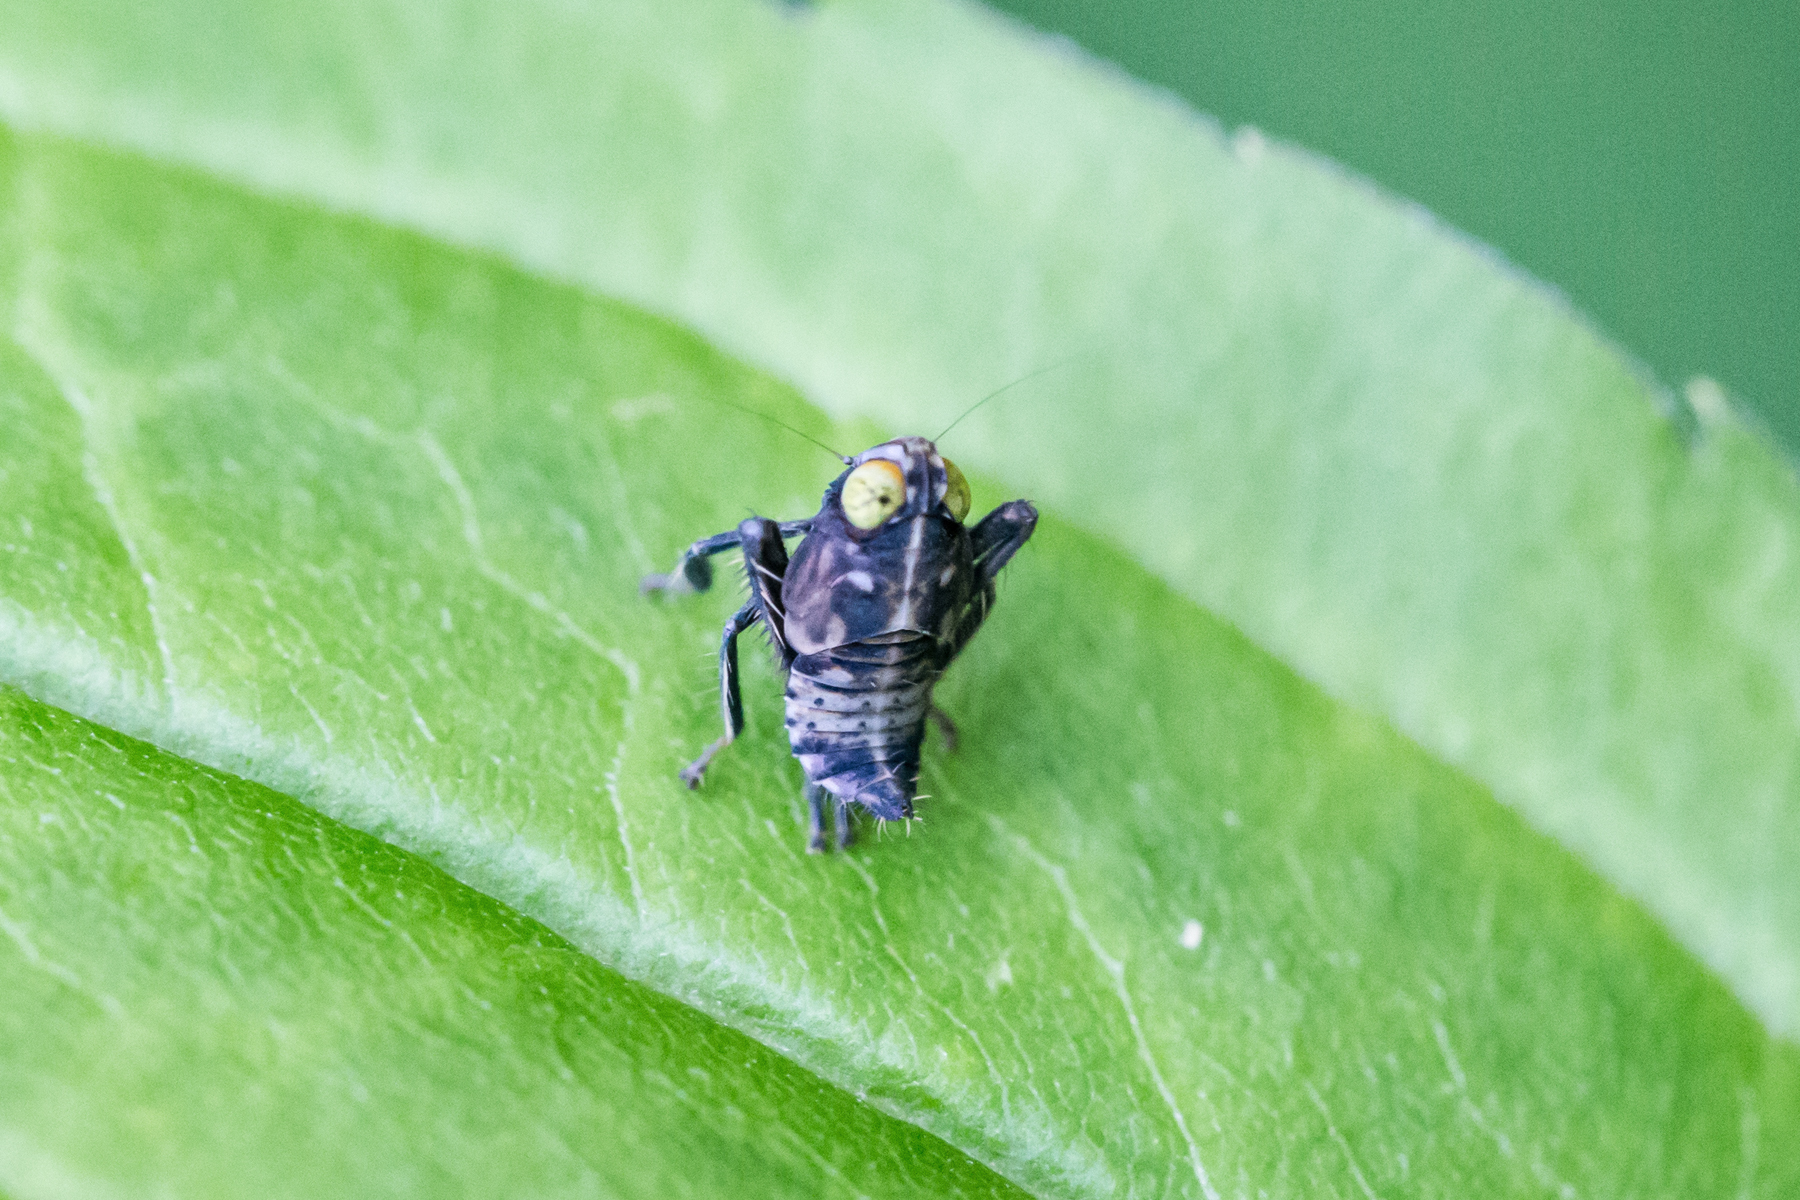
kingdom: Animalia
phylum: Arthropoda
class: Insecta
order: Hemiptera
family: Cicadellidae
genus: Jikradia
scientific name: Jikradia olitoria
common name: Coppery leafhopper
